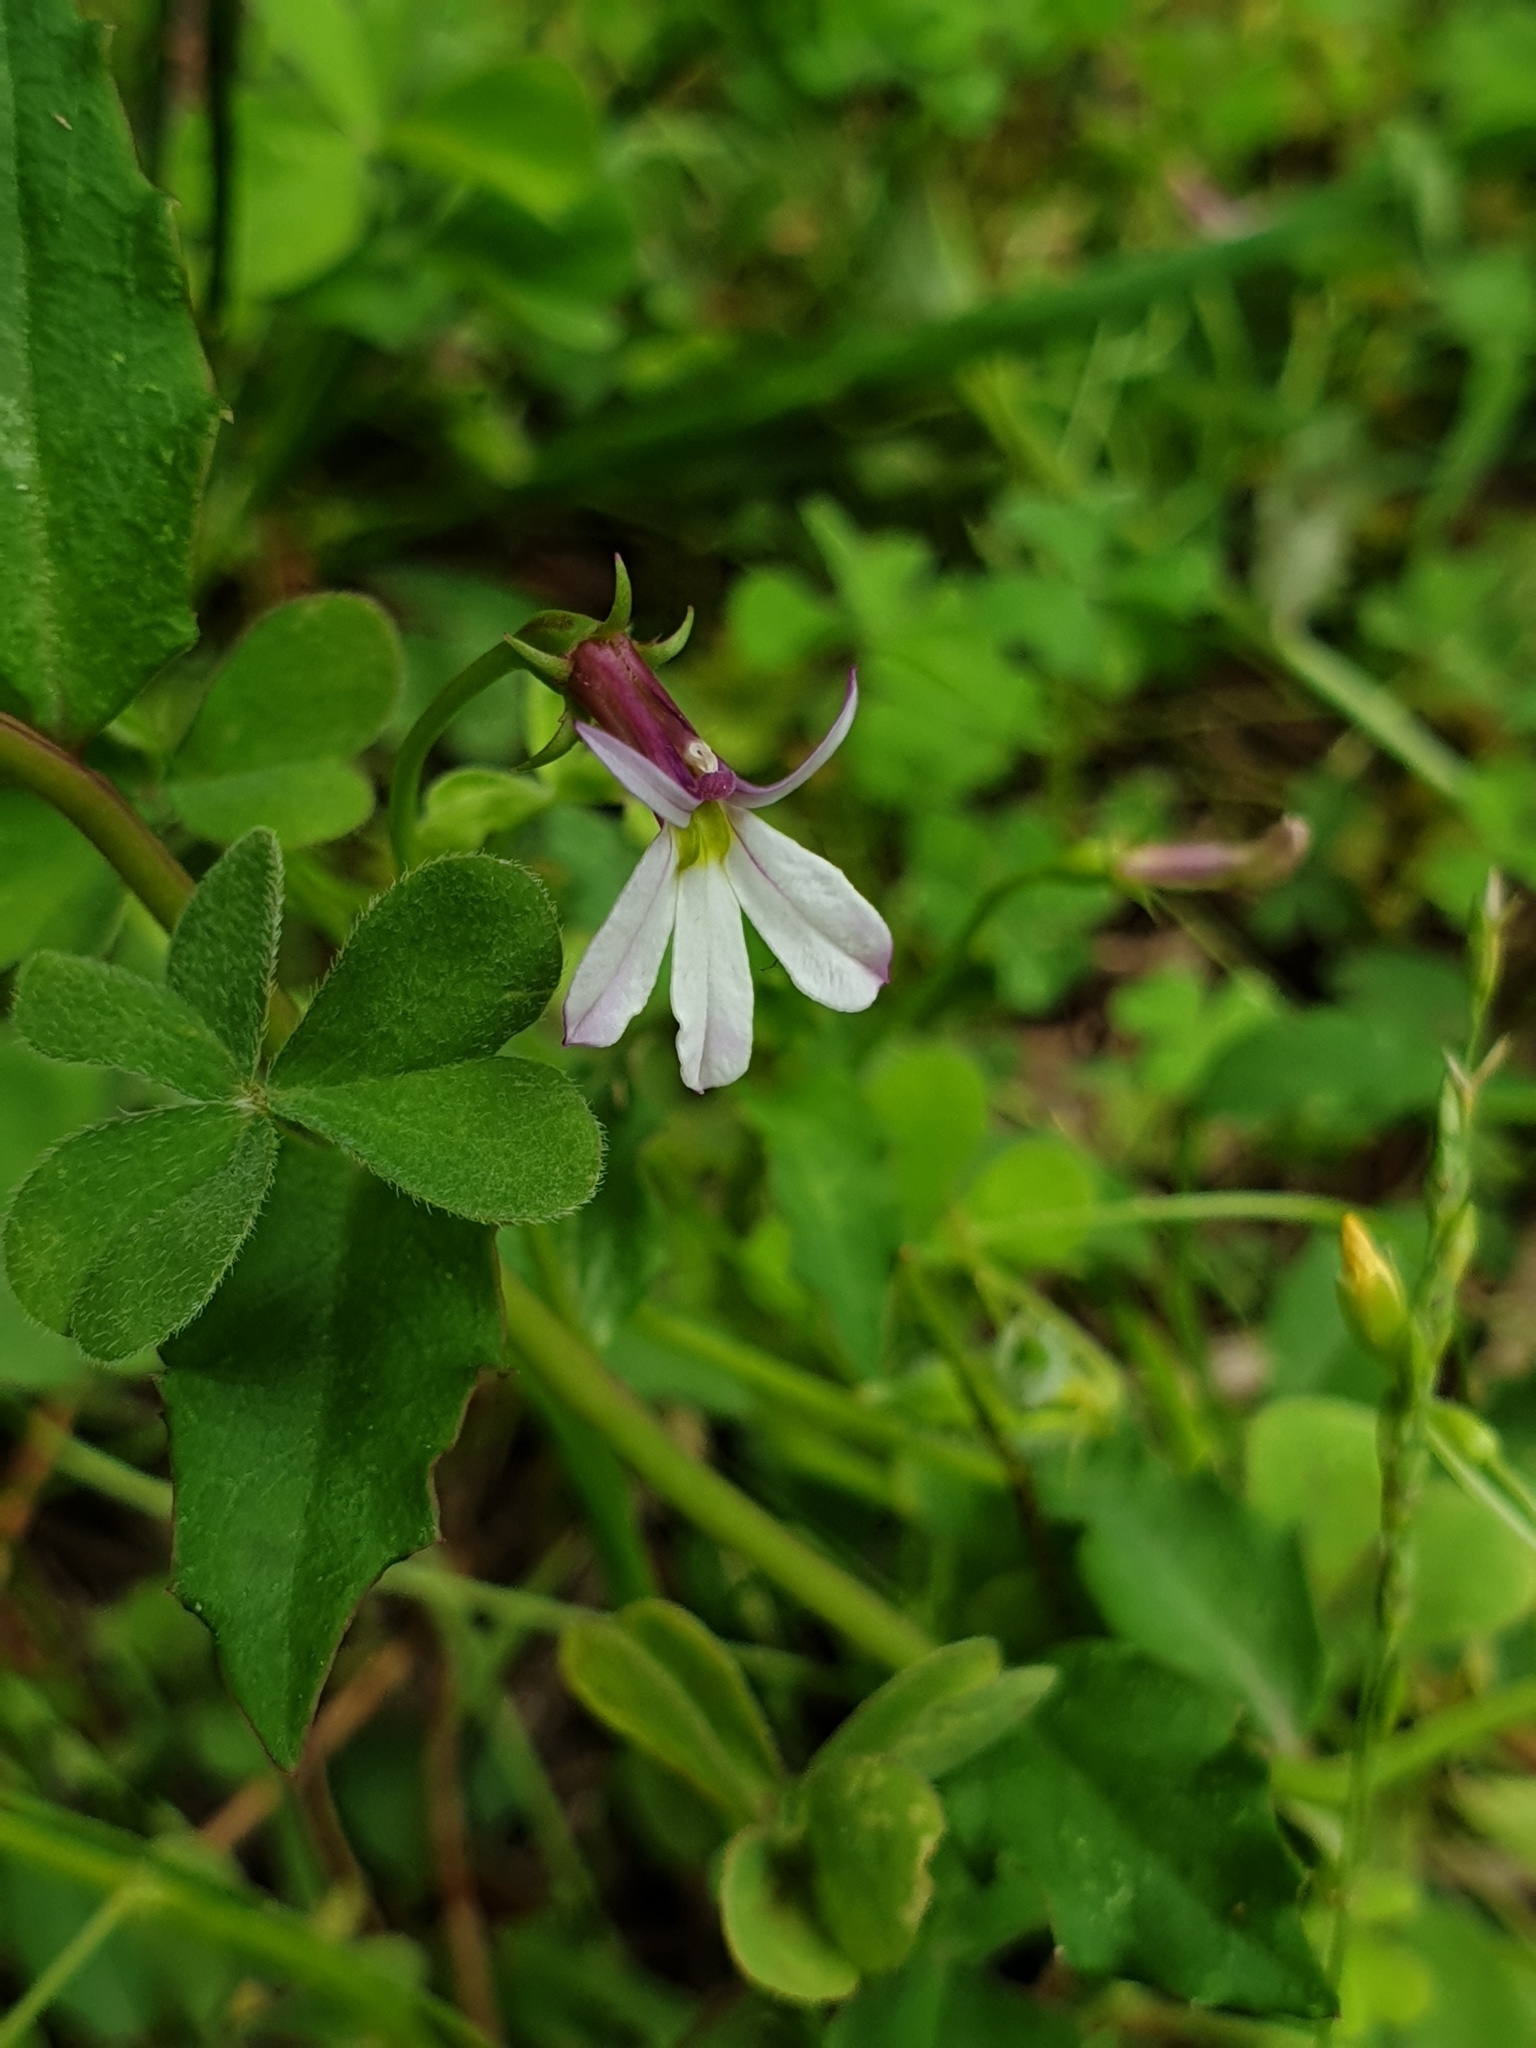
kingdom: Plantae
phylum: Tracheophyta
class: Magnoliopsida
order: Asterales
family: Campanulaceae
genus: Lobelia
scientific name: Lobelia purpurascens
